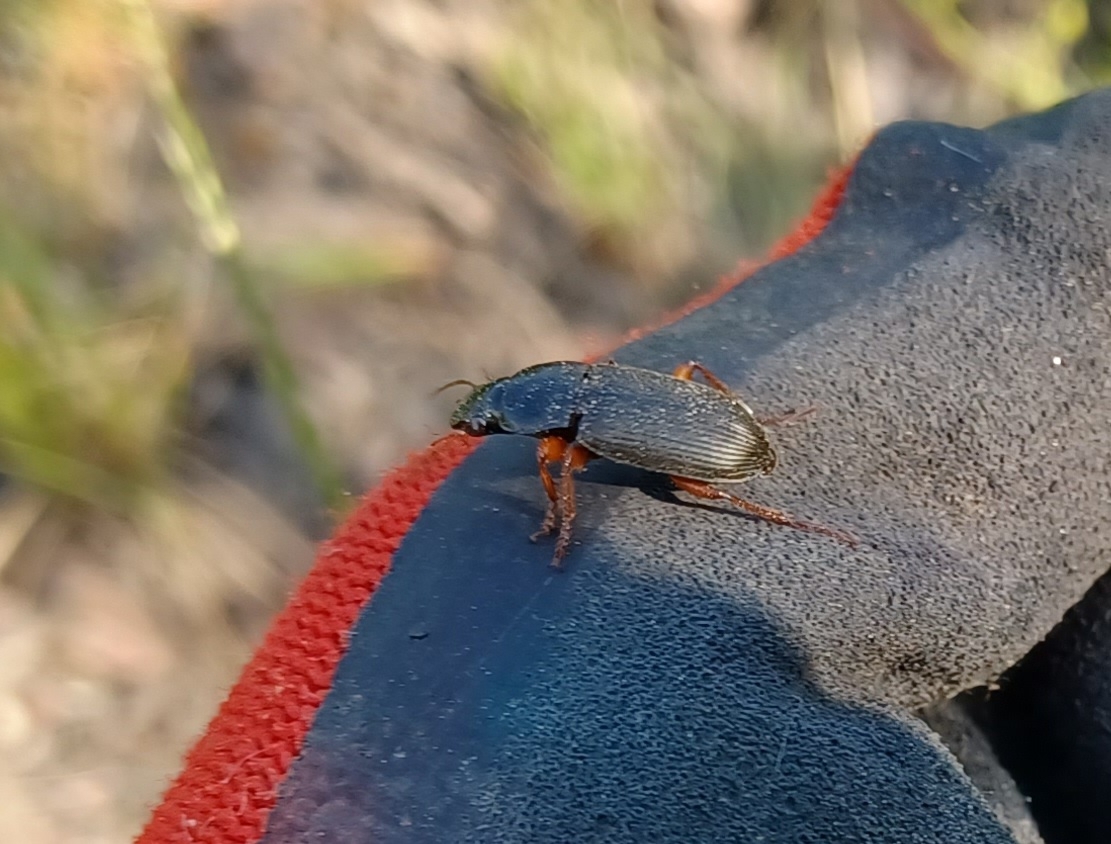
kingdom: Animalia
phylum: Arthropoda
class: Insecta
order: Coleoptera
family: Carabidae
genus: Harpalus
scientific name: Harpalus rufipes
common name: Strawberry harp ground beetle
